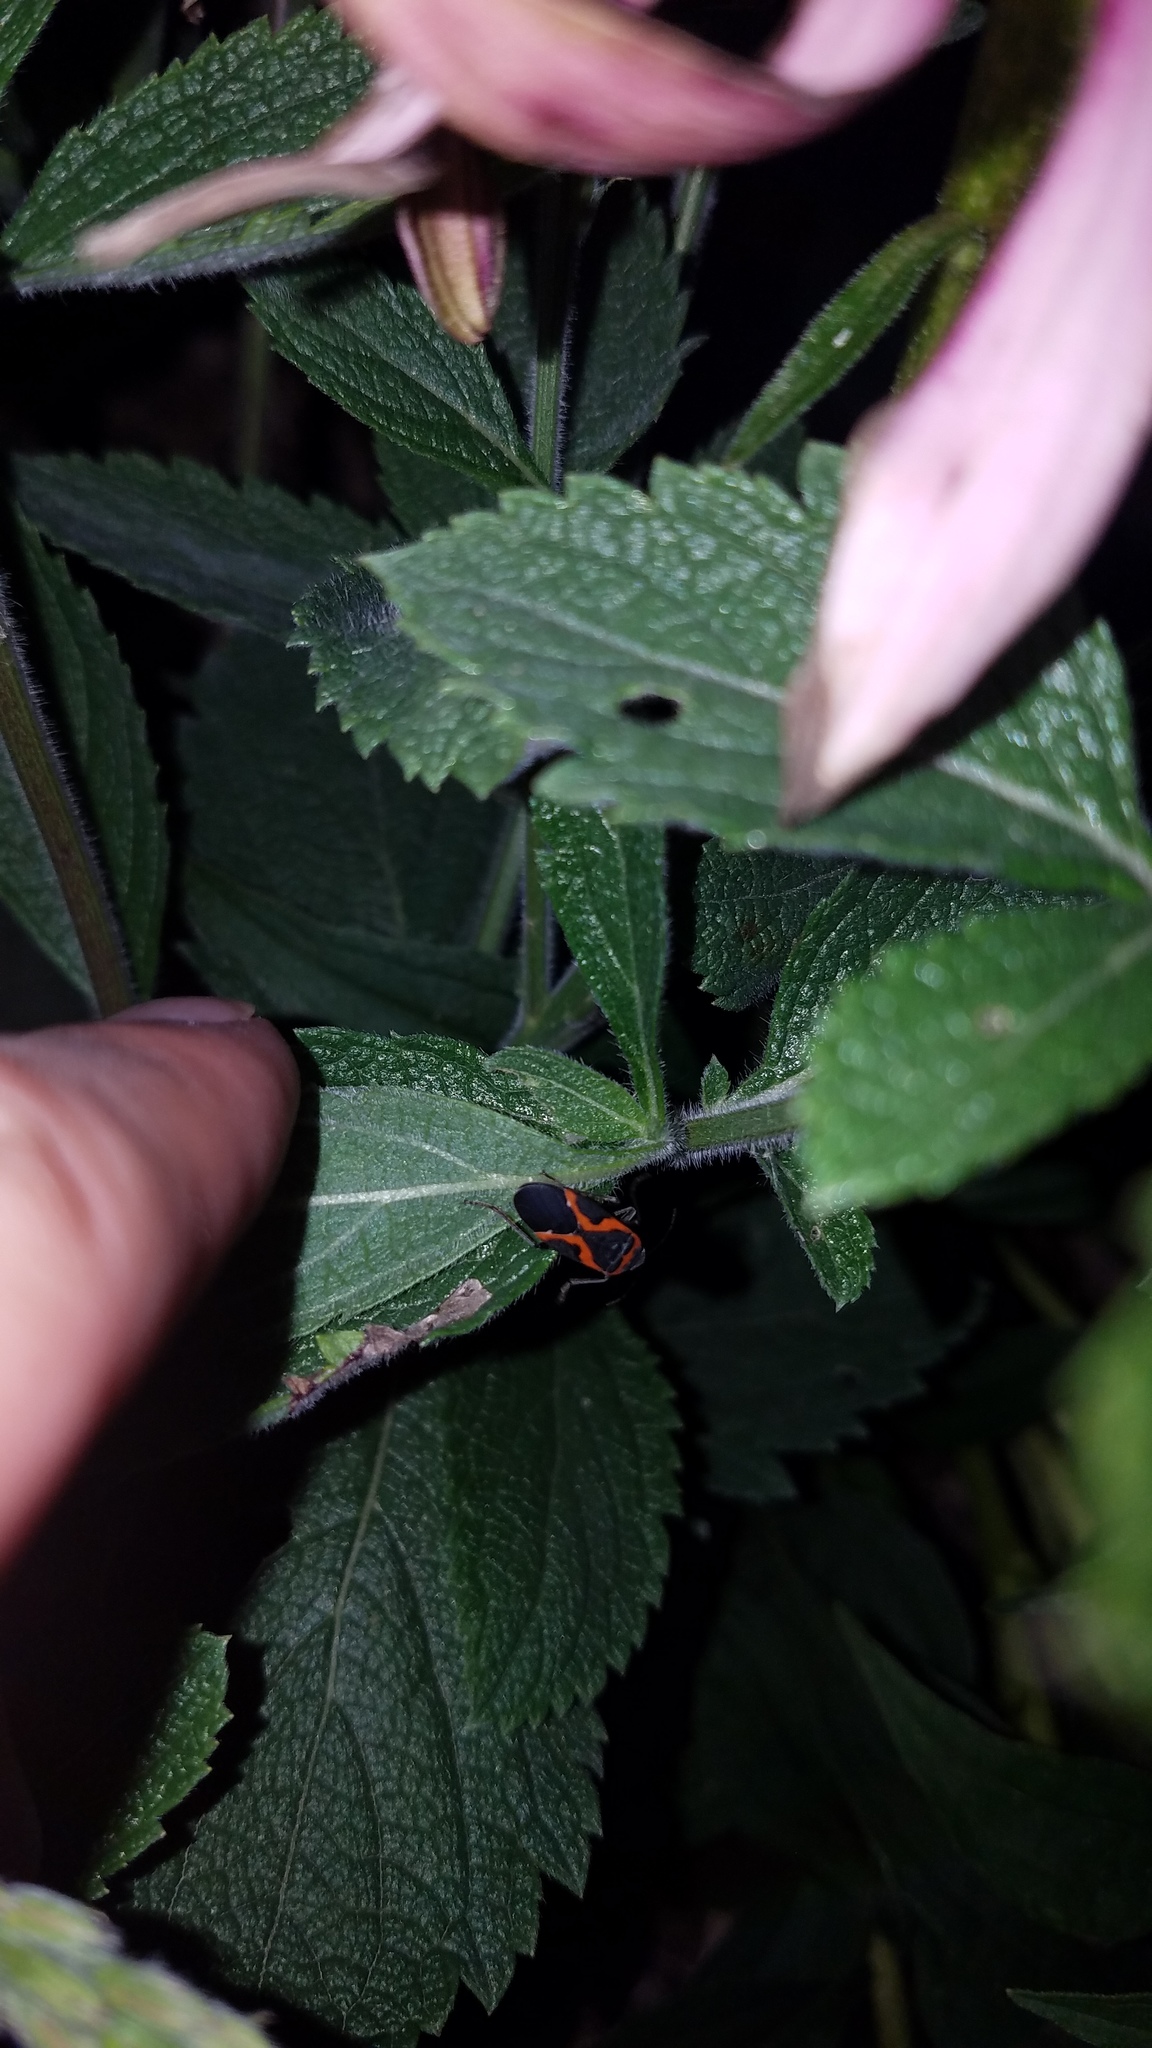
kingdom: Animalia
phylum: Arthropoda
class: Insecta
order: Hemiptera
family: Lygaeidae
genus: Lygaeus
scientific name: Lygaeus kalmii
